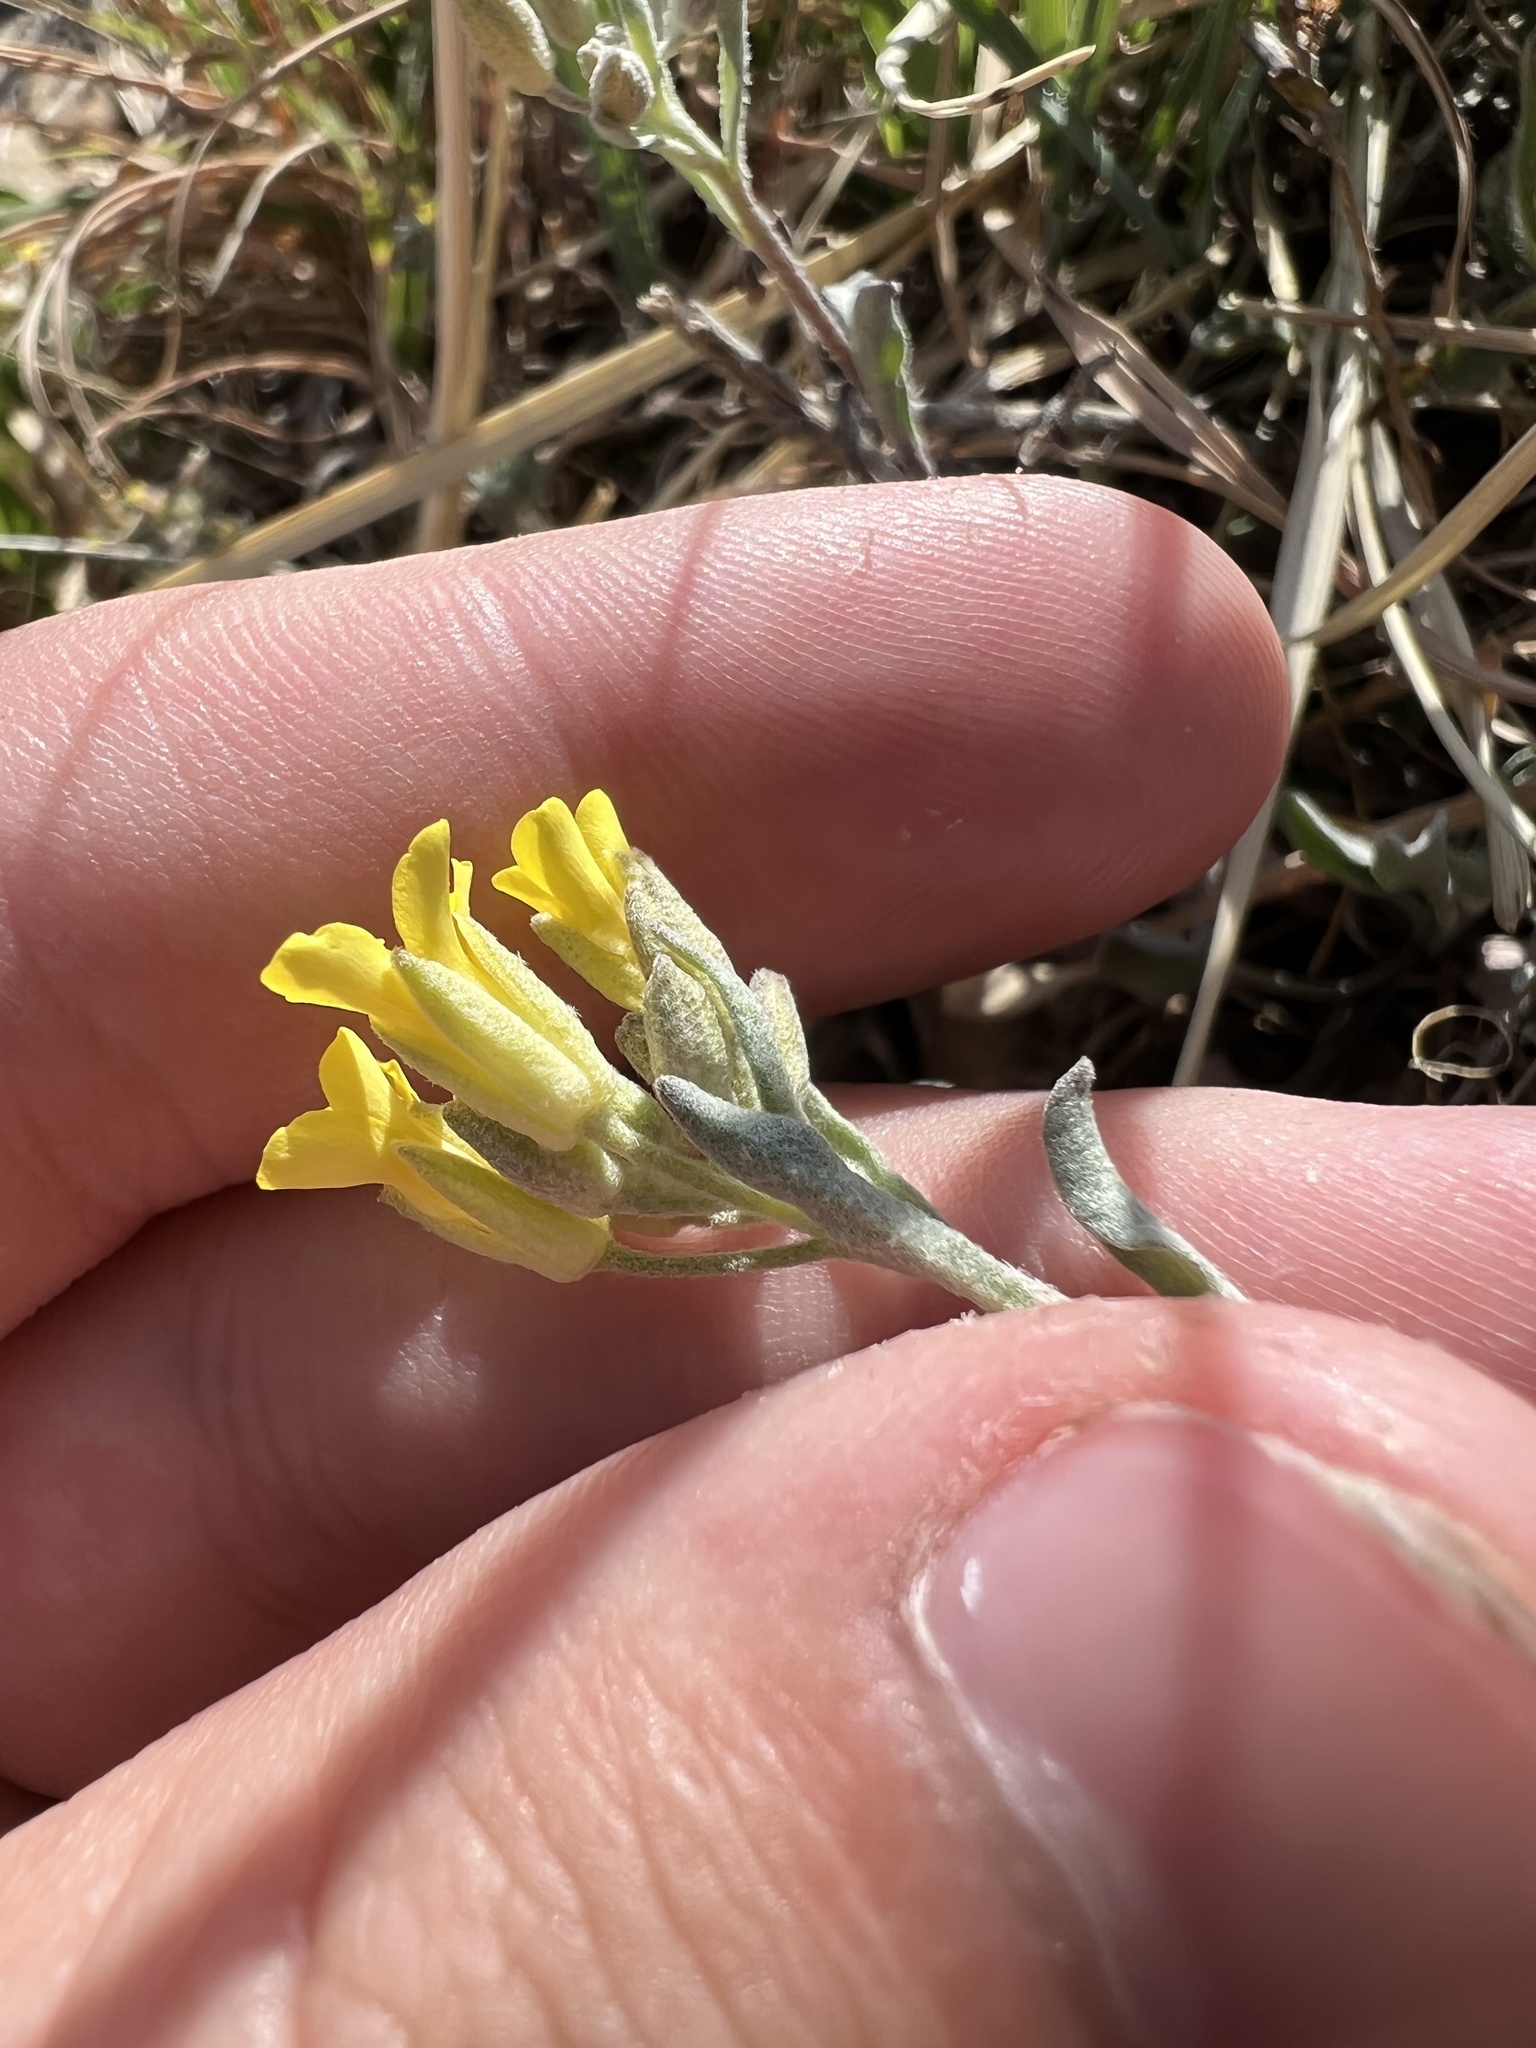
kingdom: Plantae
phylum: Tracheophyta
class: Magnoliopsida
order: Brassicales
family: Brassicaceae
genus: Physaria
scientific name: Physaria montana
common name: Mountain bladderpod
